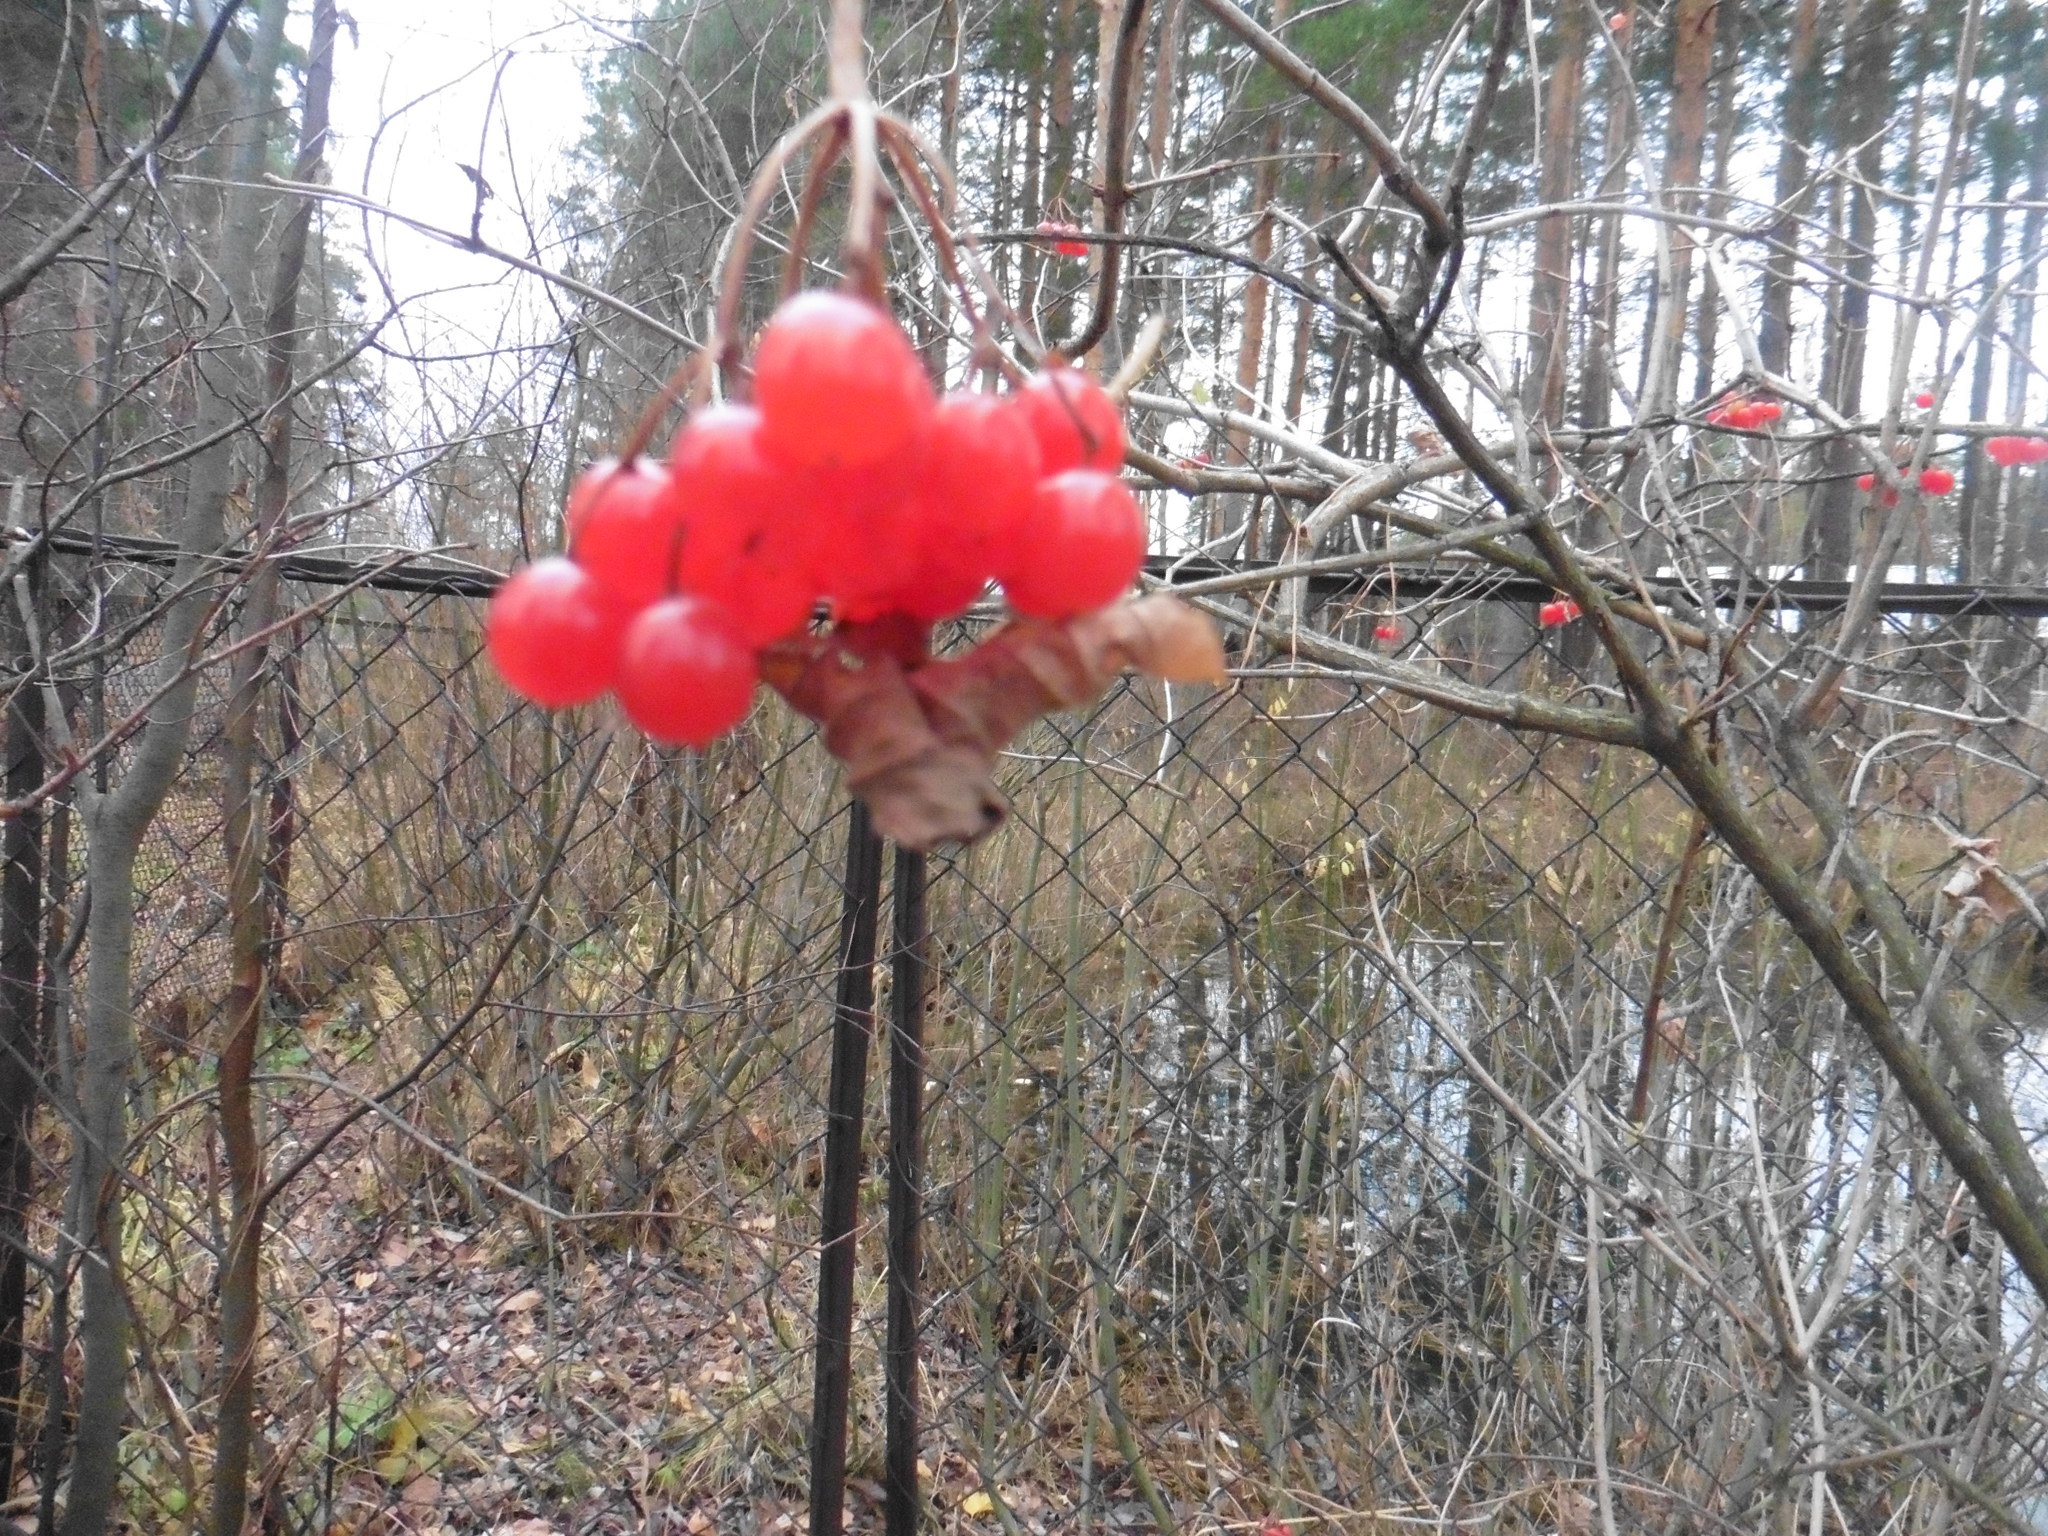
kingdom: Plantae
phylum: Tracheophyta
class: Magnoliopsida
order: Dipsacales
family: Viburnaceae
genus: Viburnum
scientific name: Viburnum opulus
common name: Guelder-rose
